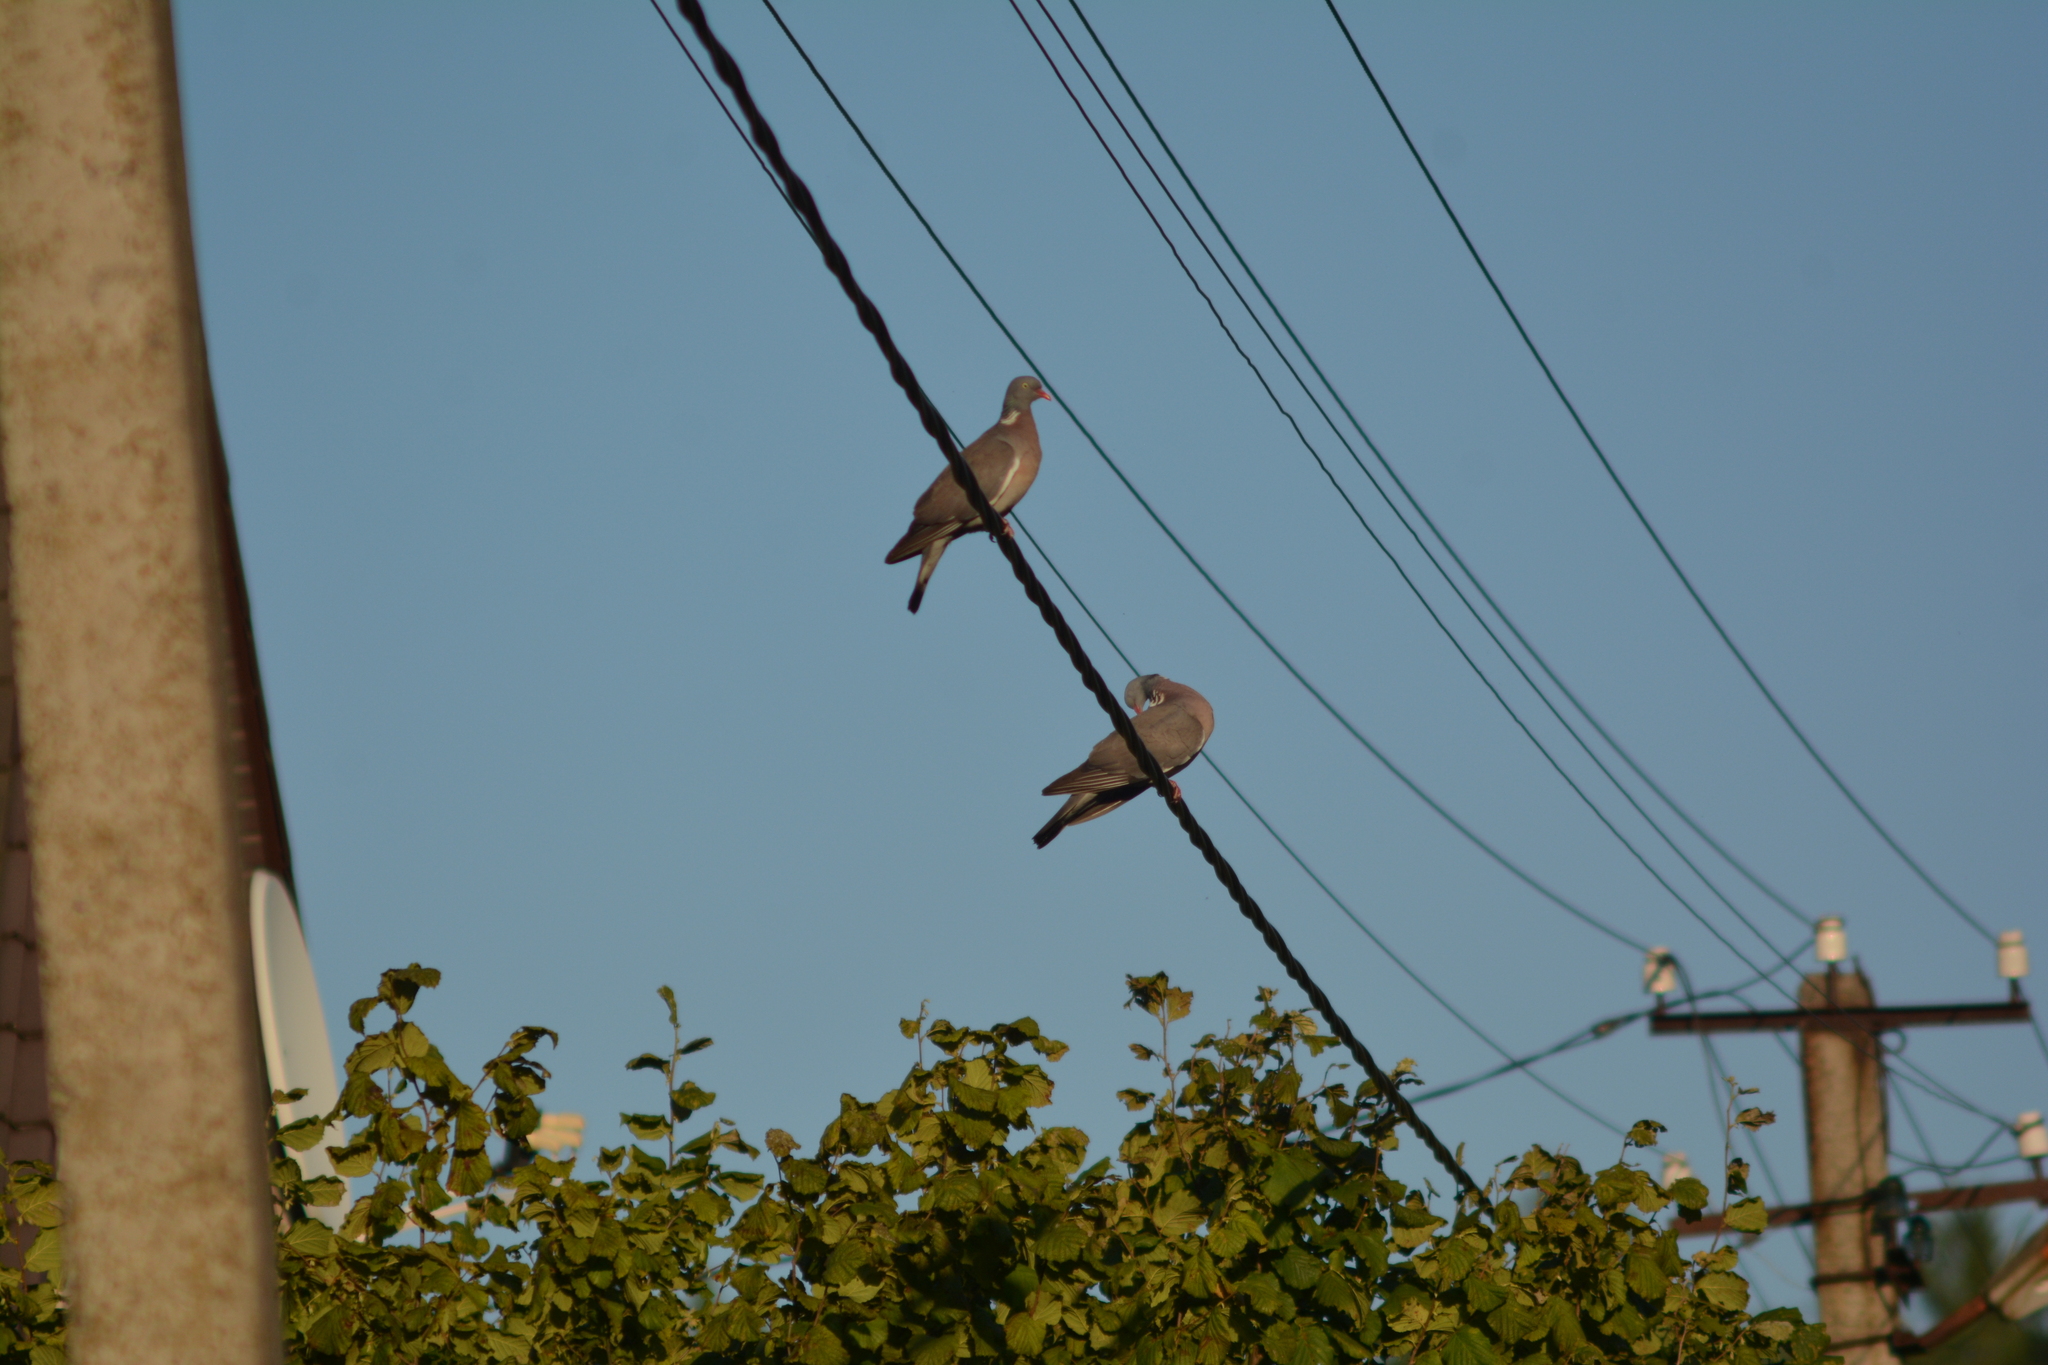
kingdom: Animalia
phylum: Chordata
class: Aves
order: Columbiformes
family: Columbidae
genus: Columba
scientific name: Columba palumbus
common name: Common wood pigeon
